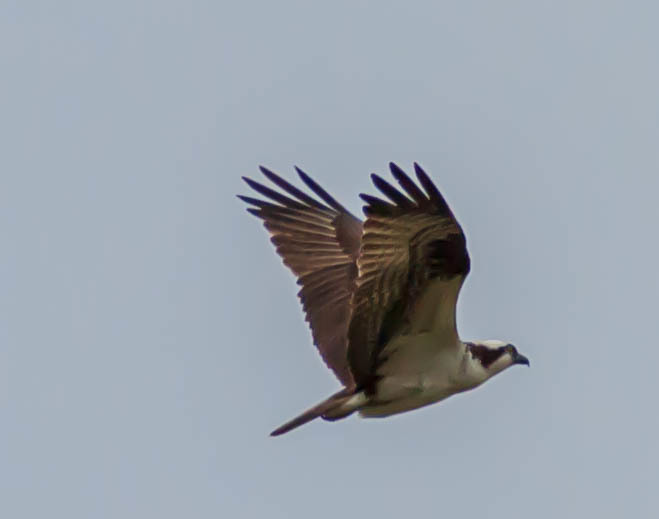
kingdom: Animalia
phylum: Chordata
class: Aves
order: Accipitriformes
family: Pandionidae
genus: Pandion
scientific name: Pandion haliaetus
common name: Osprey
